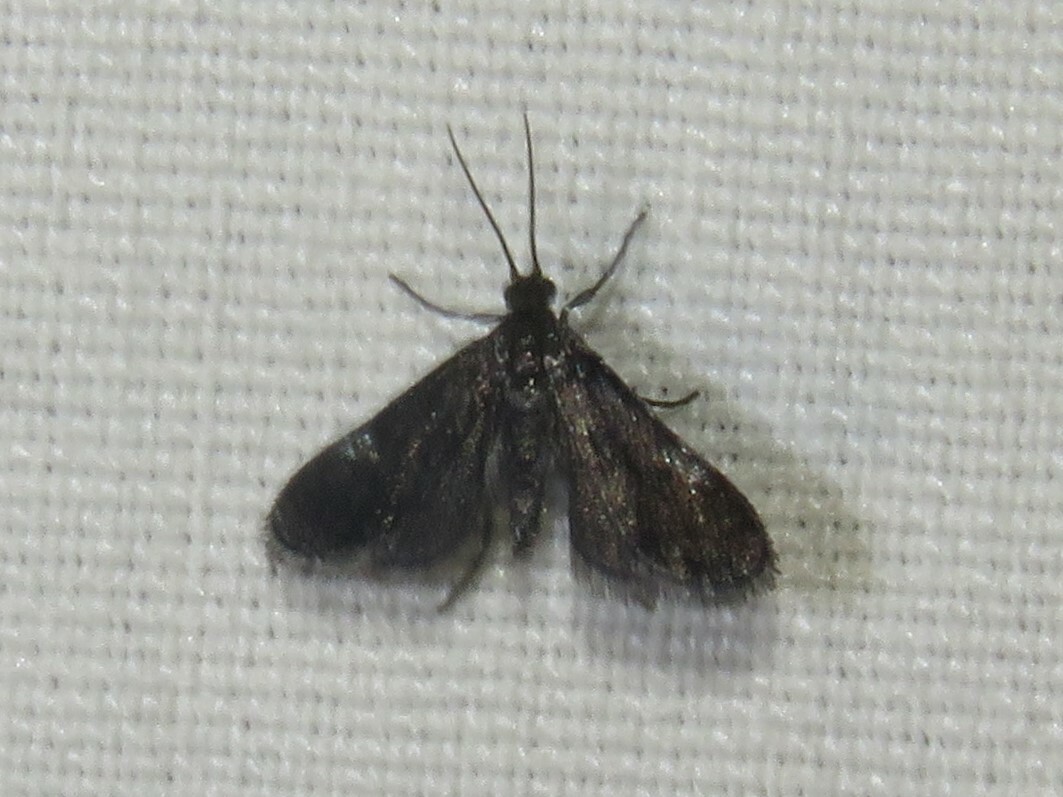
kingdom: Animalia
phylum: Arthropoda
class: Insecta
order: Lepidoptera
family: Crambidae
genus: Elophila
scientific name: Elophila tinealis
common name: Black duckweed moth
